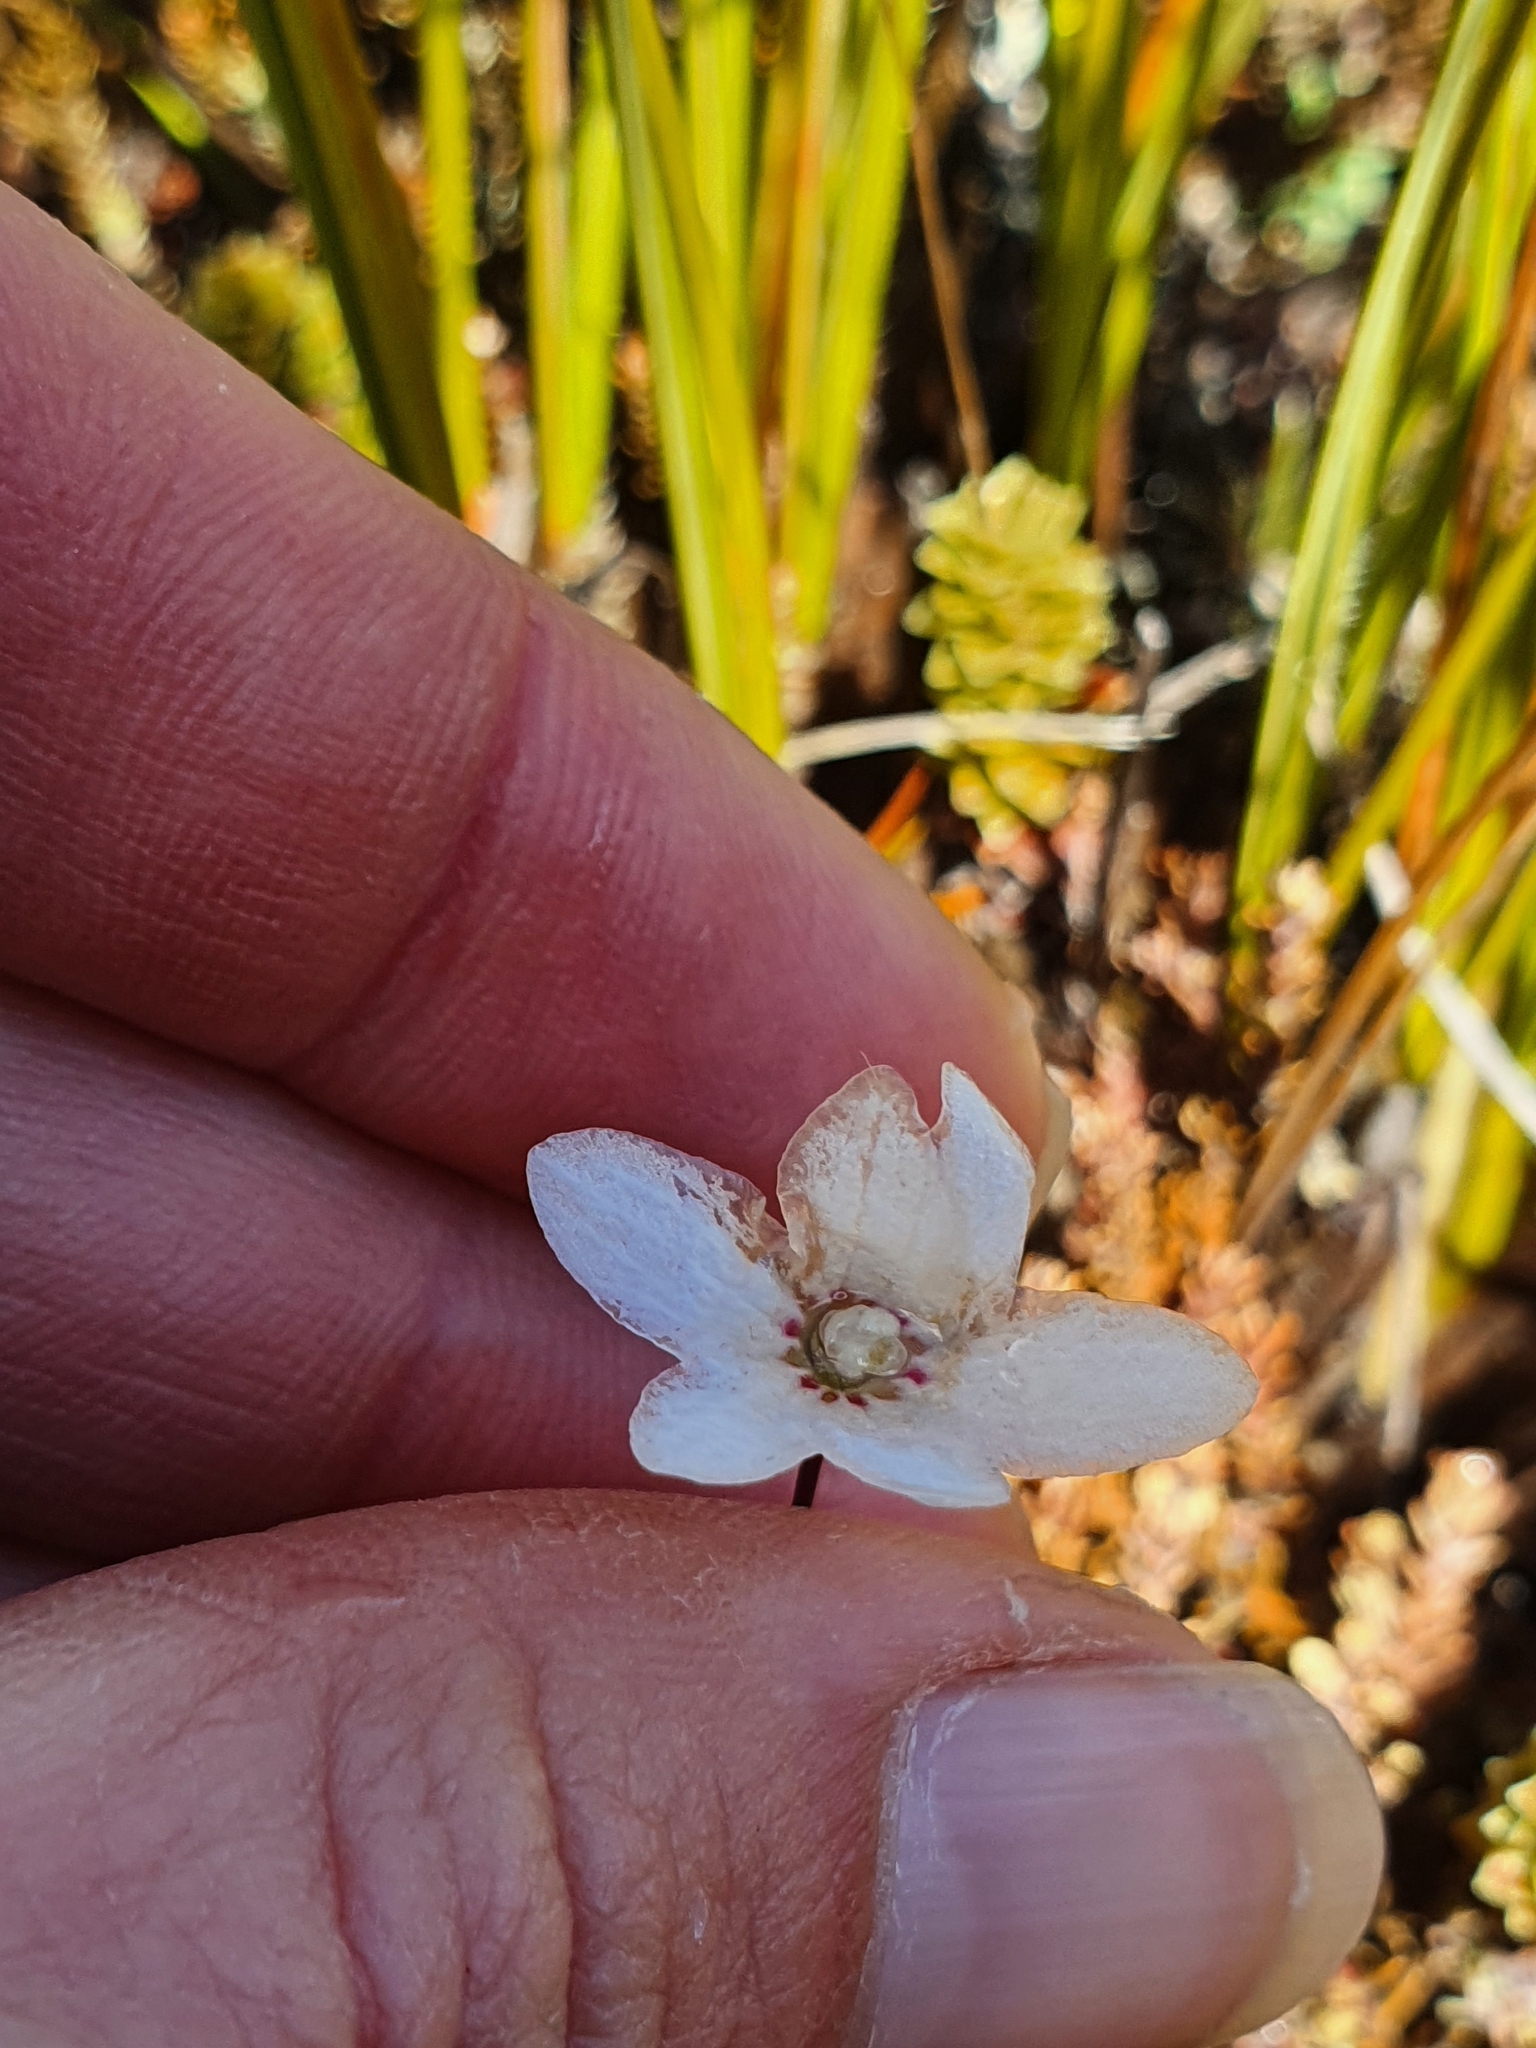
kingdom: Plantae
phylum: Tracheophyta
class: Magnoliopsida
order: Asterales
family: Stylidiaceae
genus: Forstera
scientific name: Forstera sedifolia
